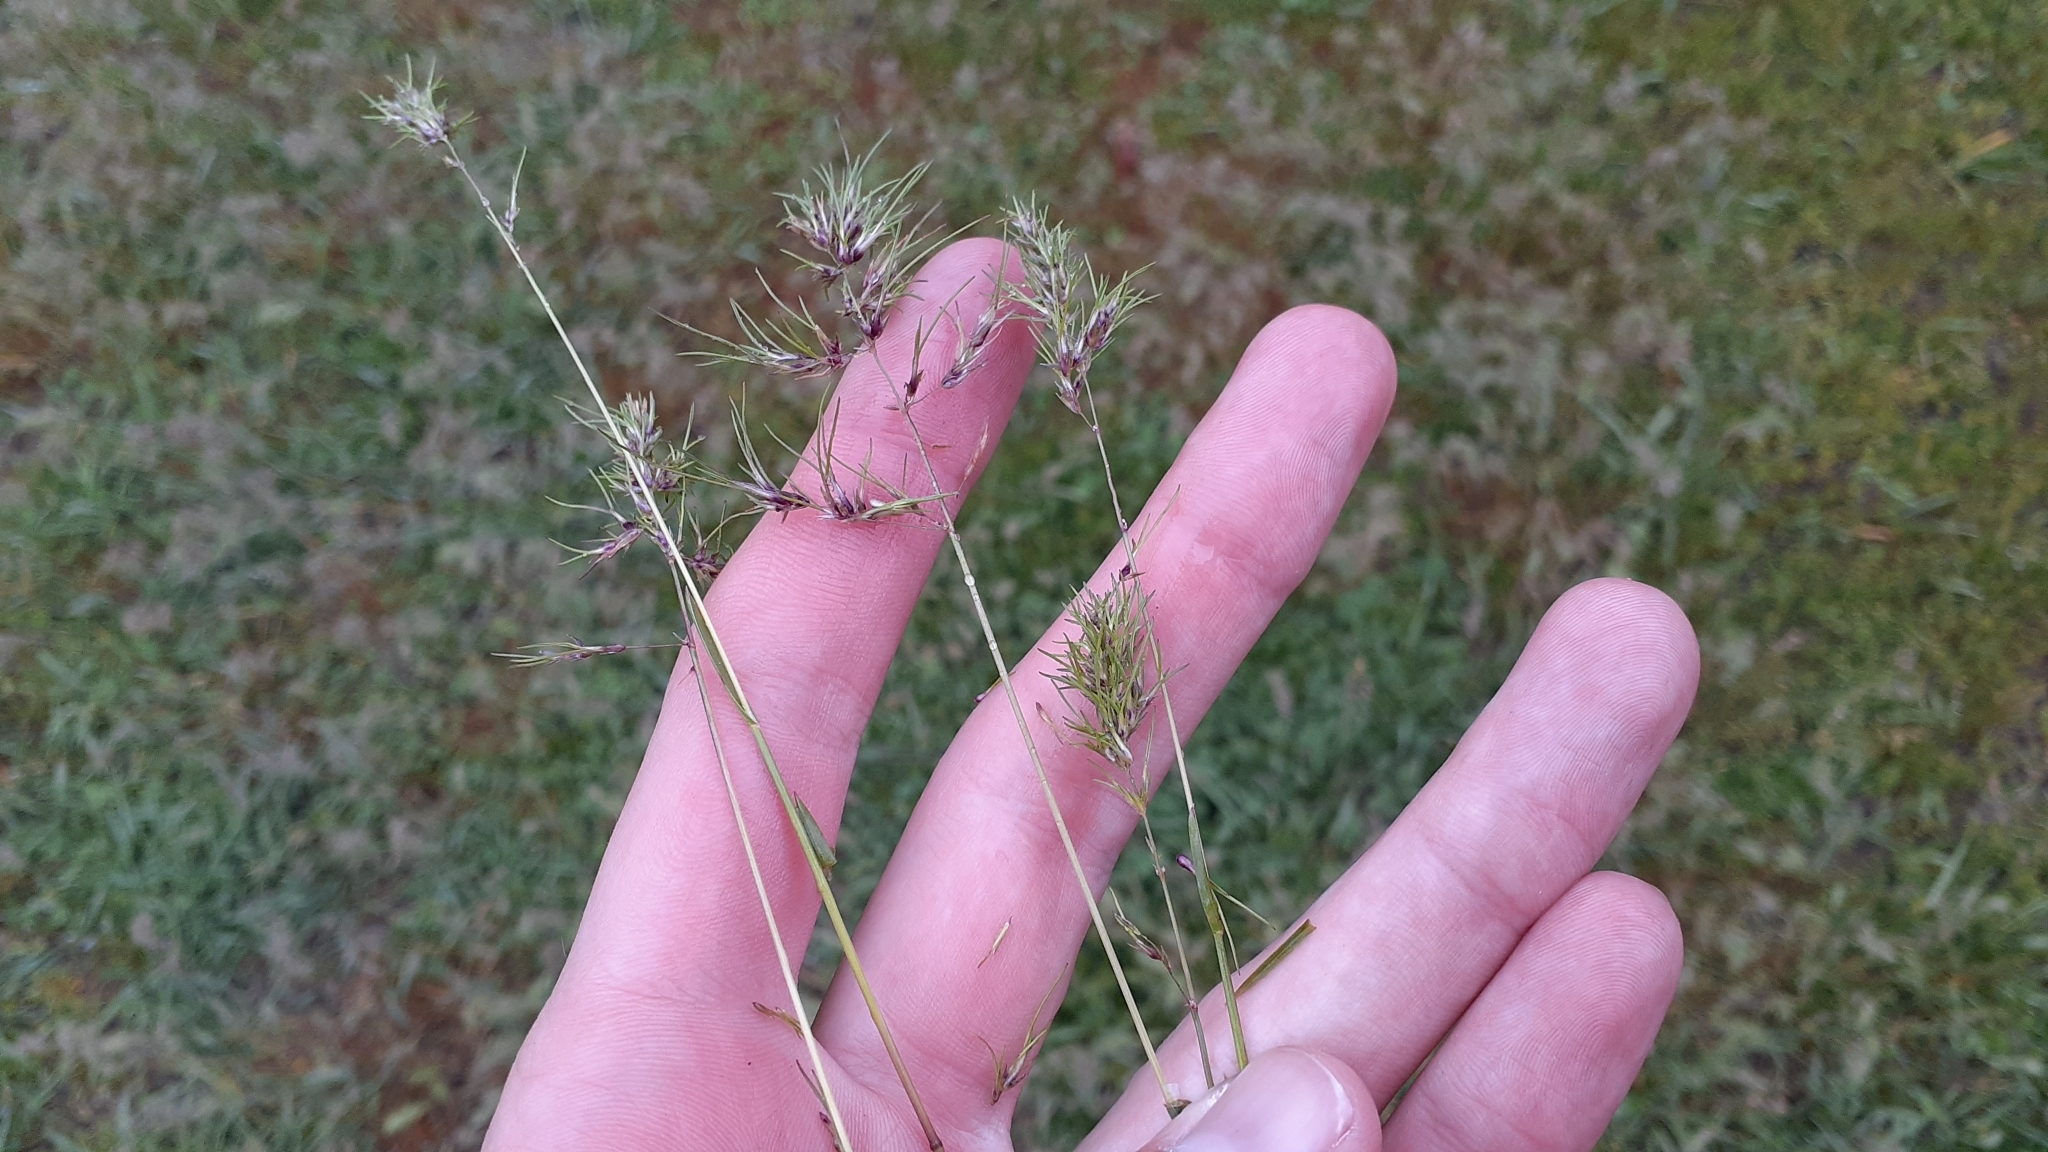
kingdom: Plantae
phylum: Tracheophyta
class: Liliopsida
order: Poales
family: Poaceae
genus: Poa
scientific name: Poa bulbosa
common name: Bulbous bluegrass
